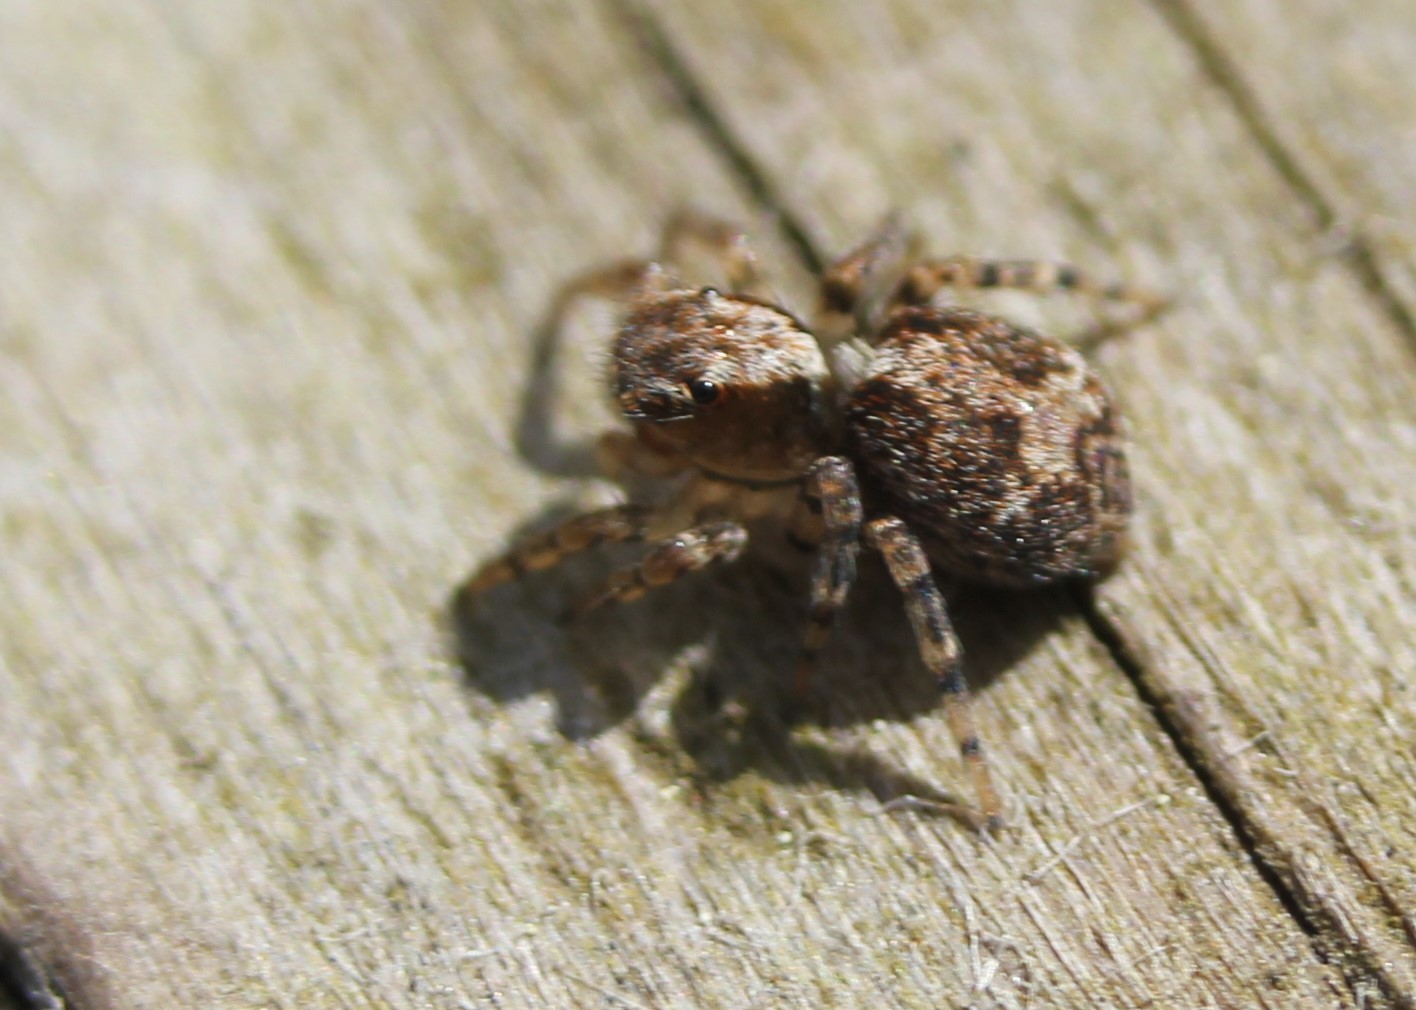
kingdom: Animalia
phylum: Arthropoda
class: Arachnida
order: Araneae
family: Salticidae
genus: Naphrys
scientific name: Naphrys pulex
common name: Flea jumping spider
